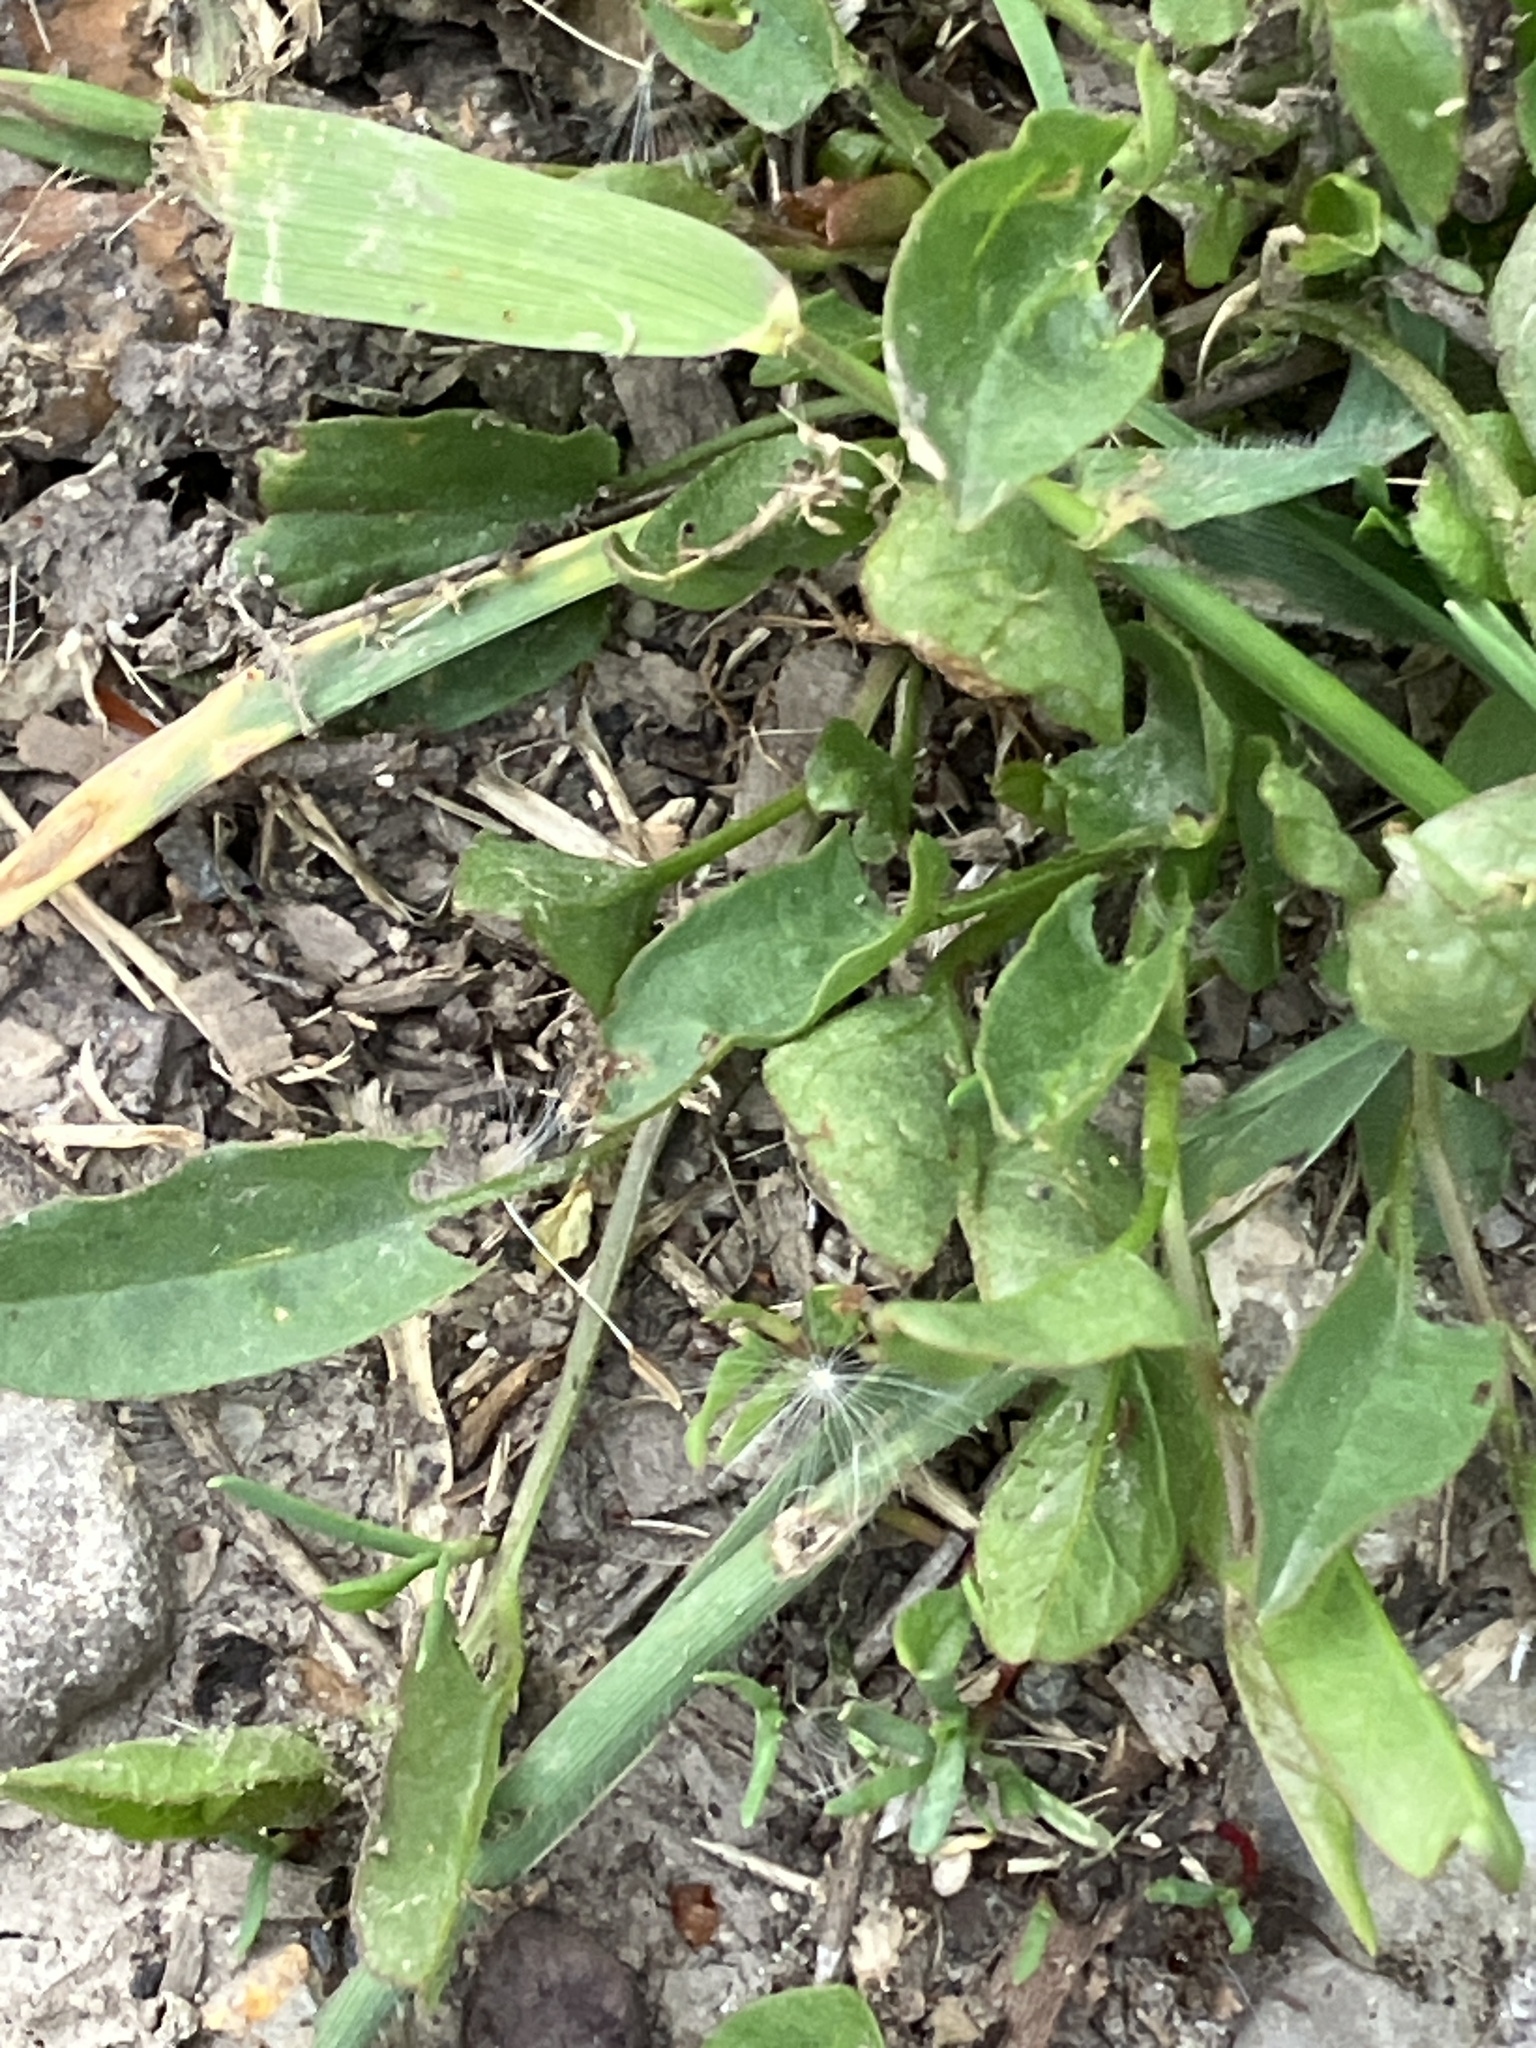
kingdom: Plantae
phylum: Tracheophyta
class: Magnoliopsida
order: Solanales
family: Convolvulaceae
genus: Convolvulus
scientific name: Convolvulus arvensis
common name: Field bindweed
